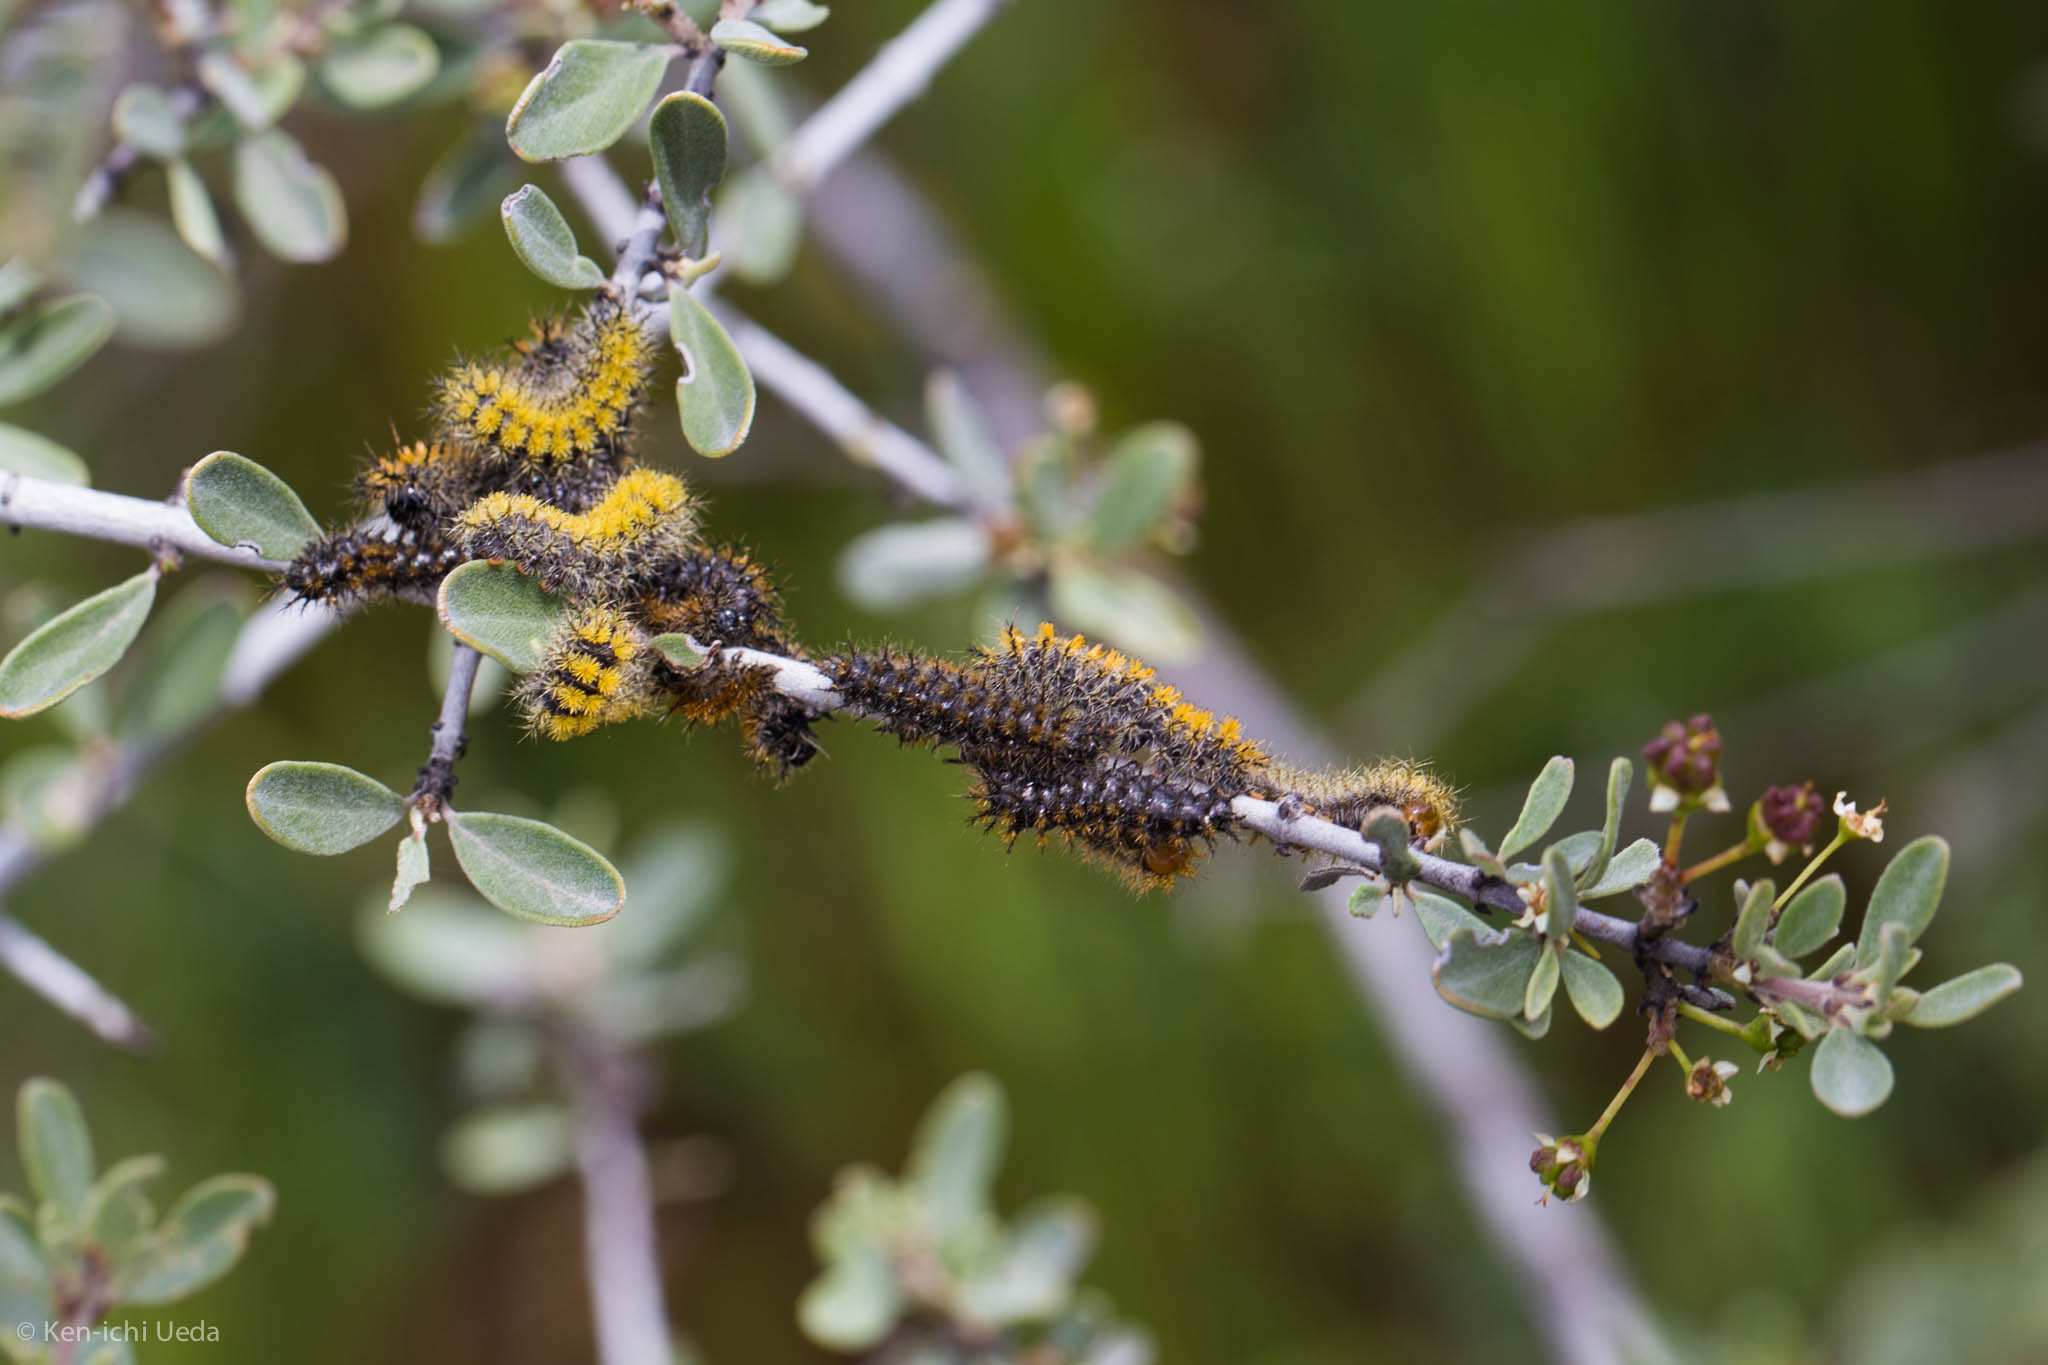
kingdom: Animalia
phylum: Arthropoda
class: Insecta
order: Lepidoptera
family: Saturniidae
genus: Hemileuca
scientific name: Hemileuca eglanterina
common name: Western sheepmoth
